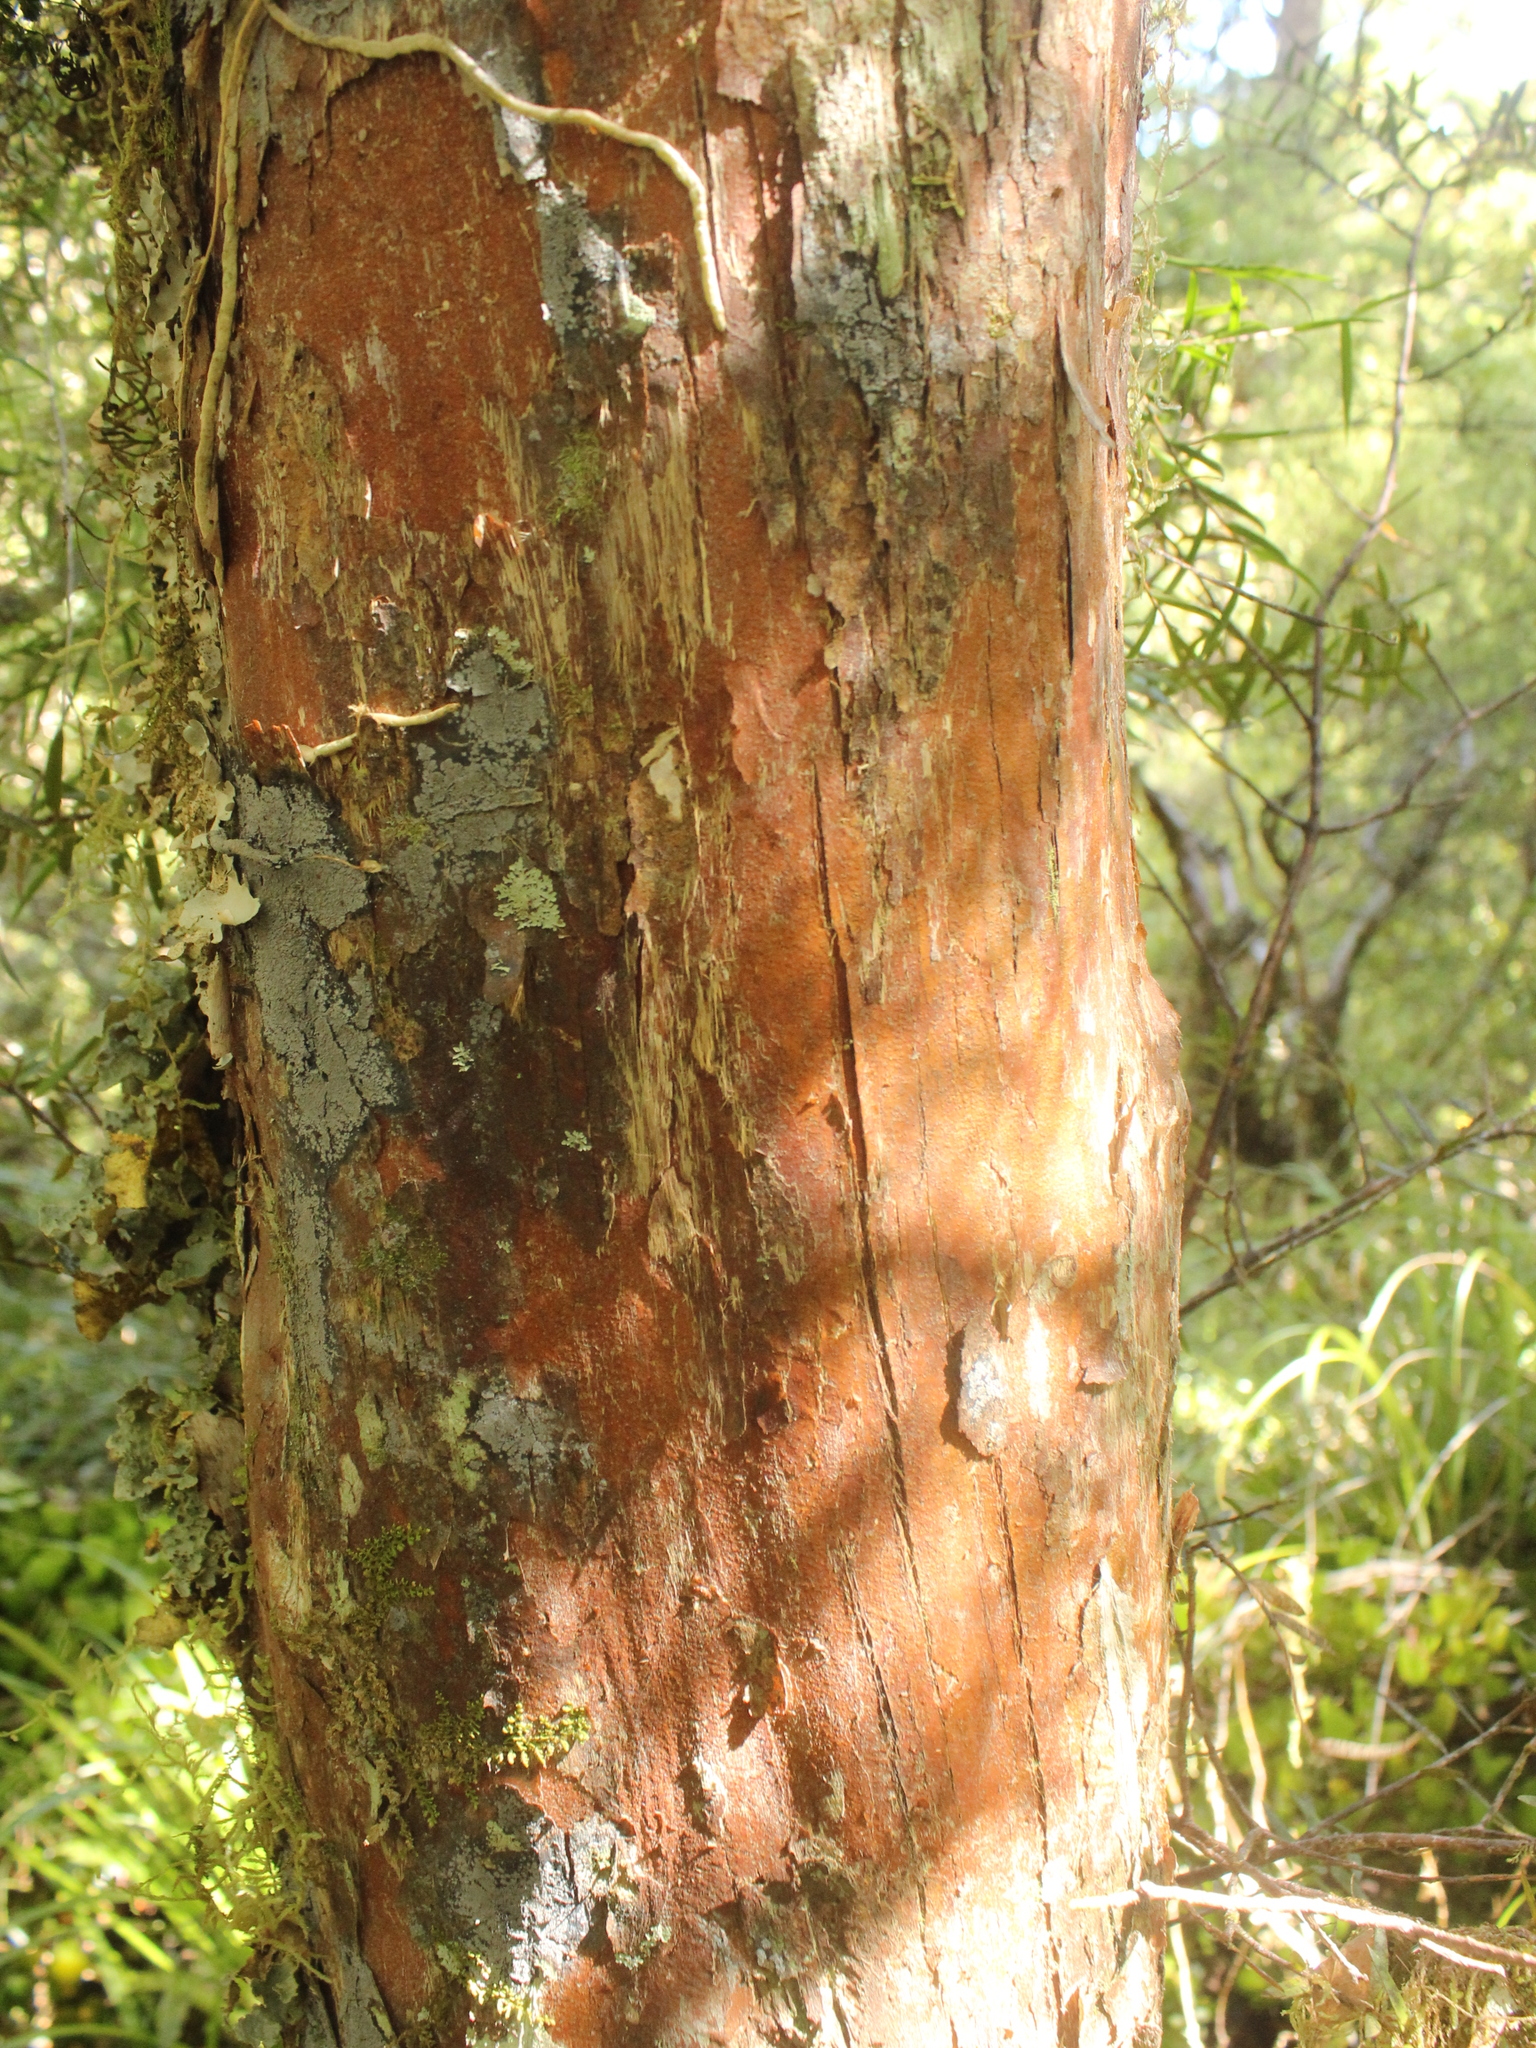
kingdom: Plantae
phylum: Tracheophyta
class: Pinopsida
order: Pinales
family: Podocarpaceae
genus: Podocarpus
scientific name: Podocarpus laetus
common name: Hall's totara
